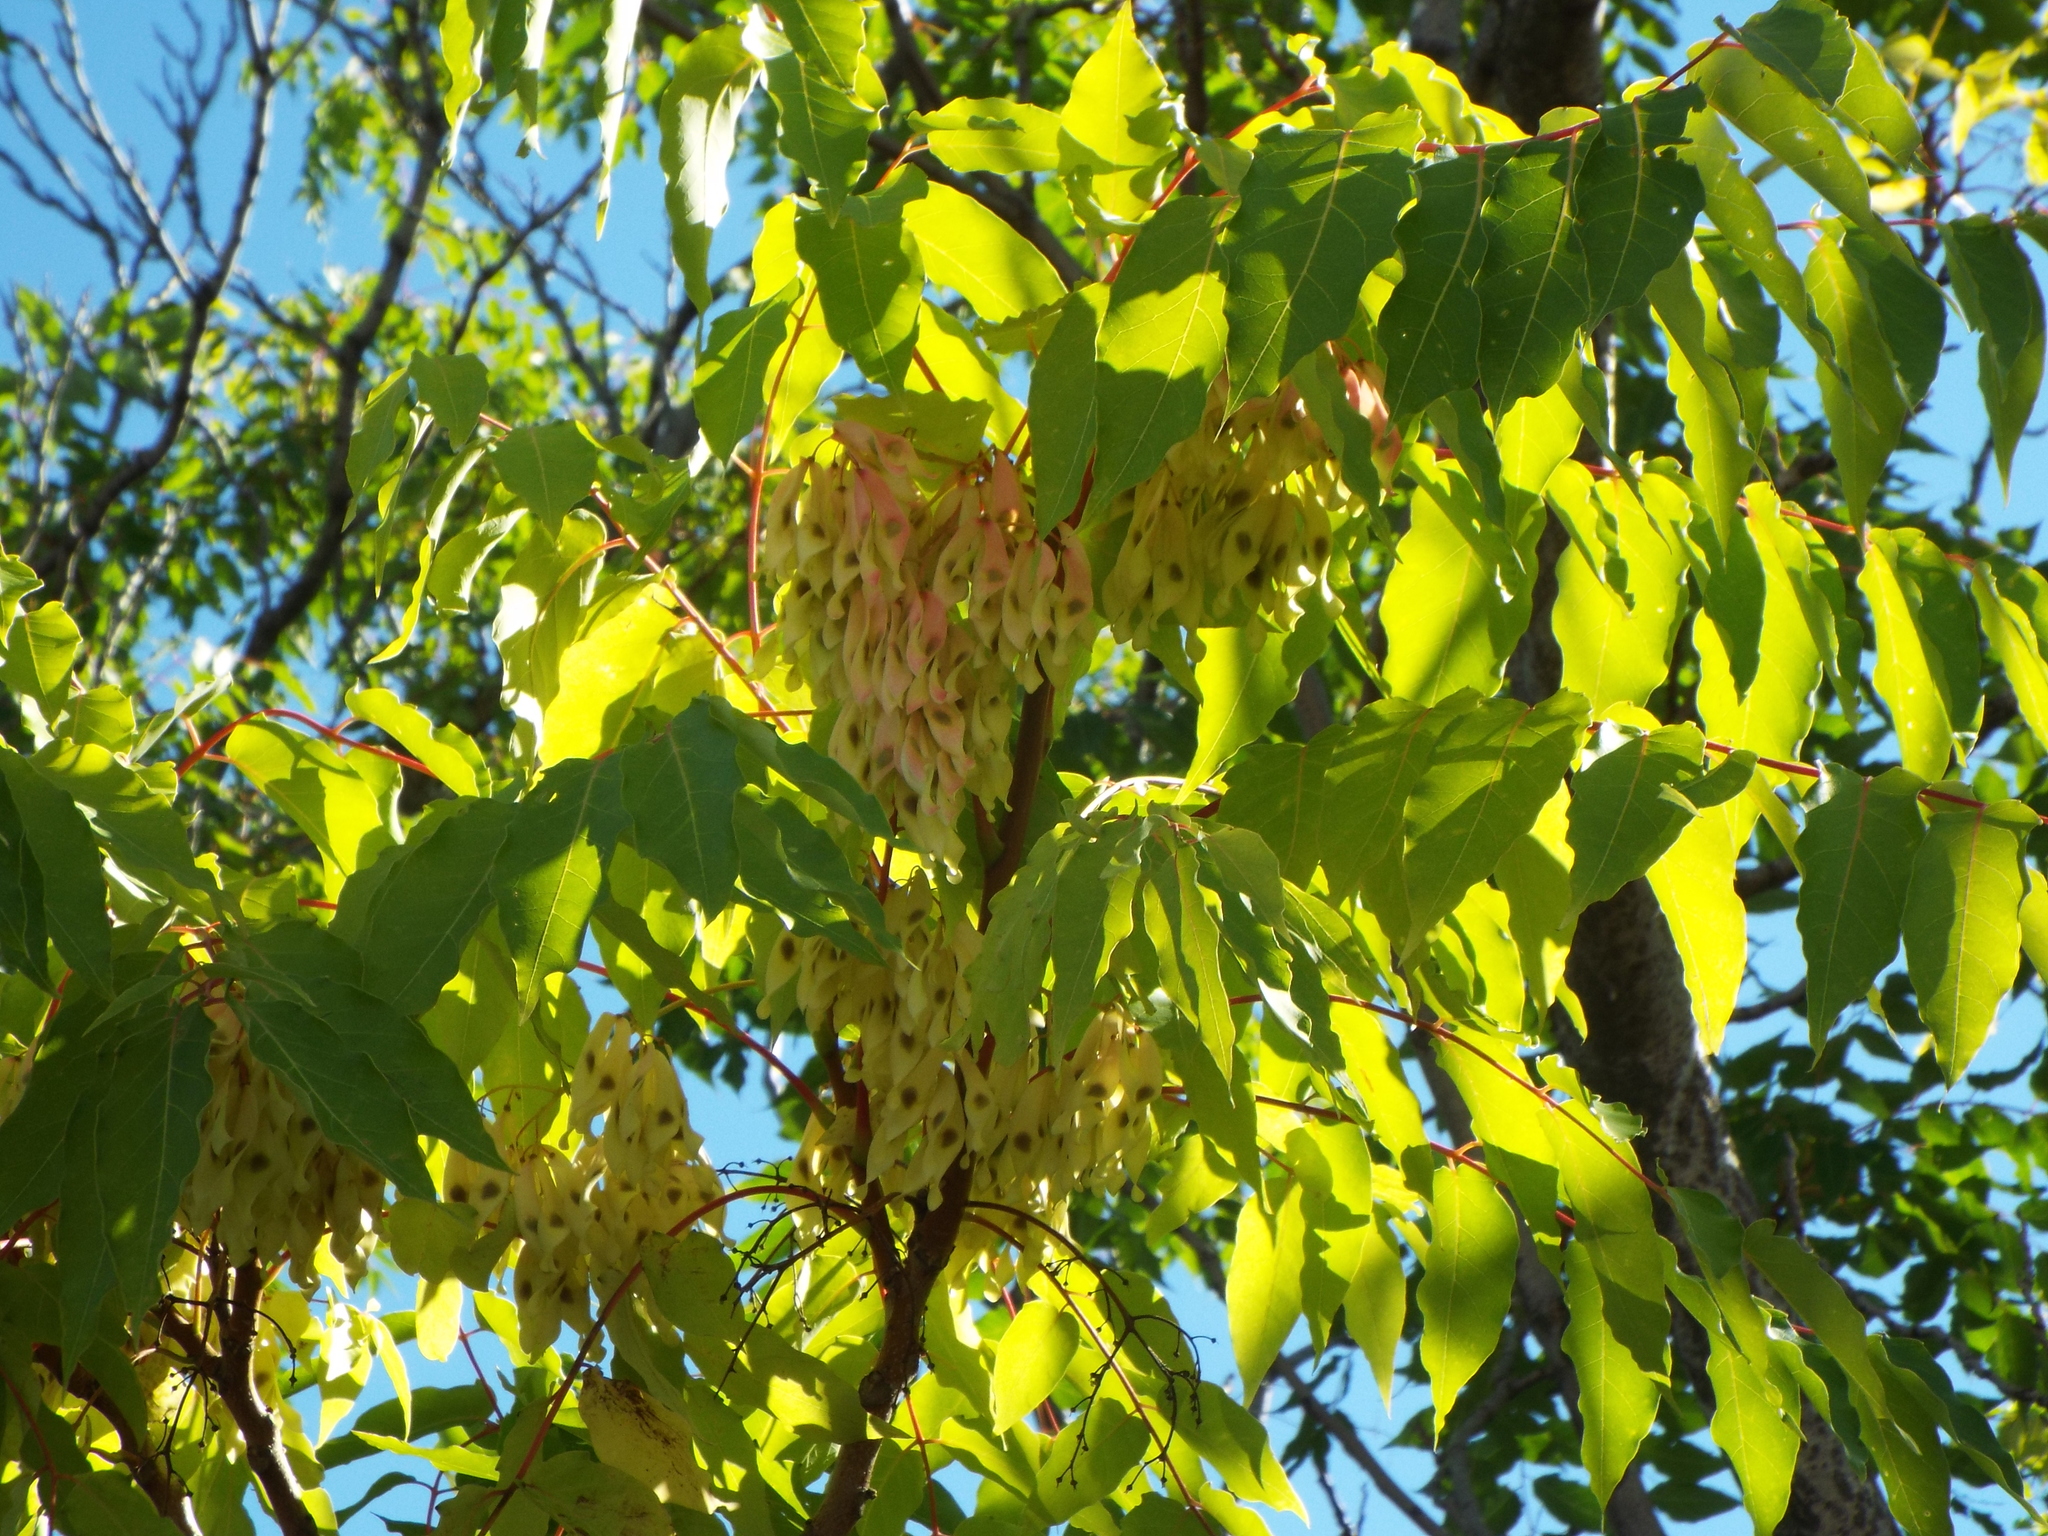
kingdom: Plantae
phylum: Tracheophyta
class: Magnoliopsida
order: Sapindales
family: Simaroubaceae
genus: Ailanthus
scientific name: Ailanthus altissima
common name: Tree-of-heaven
